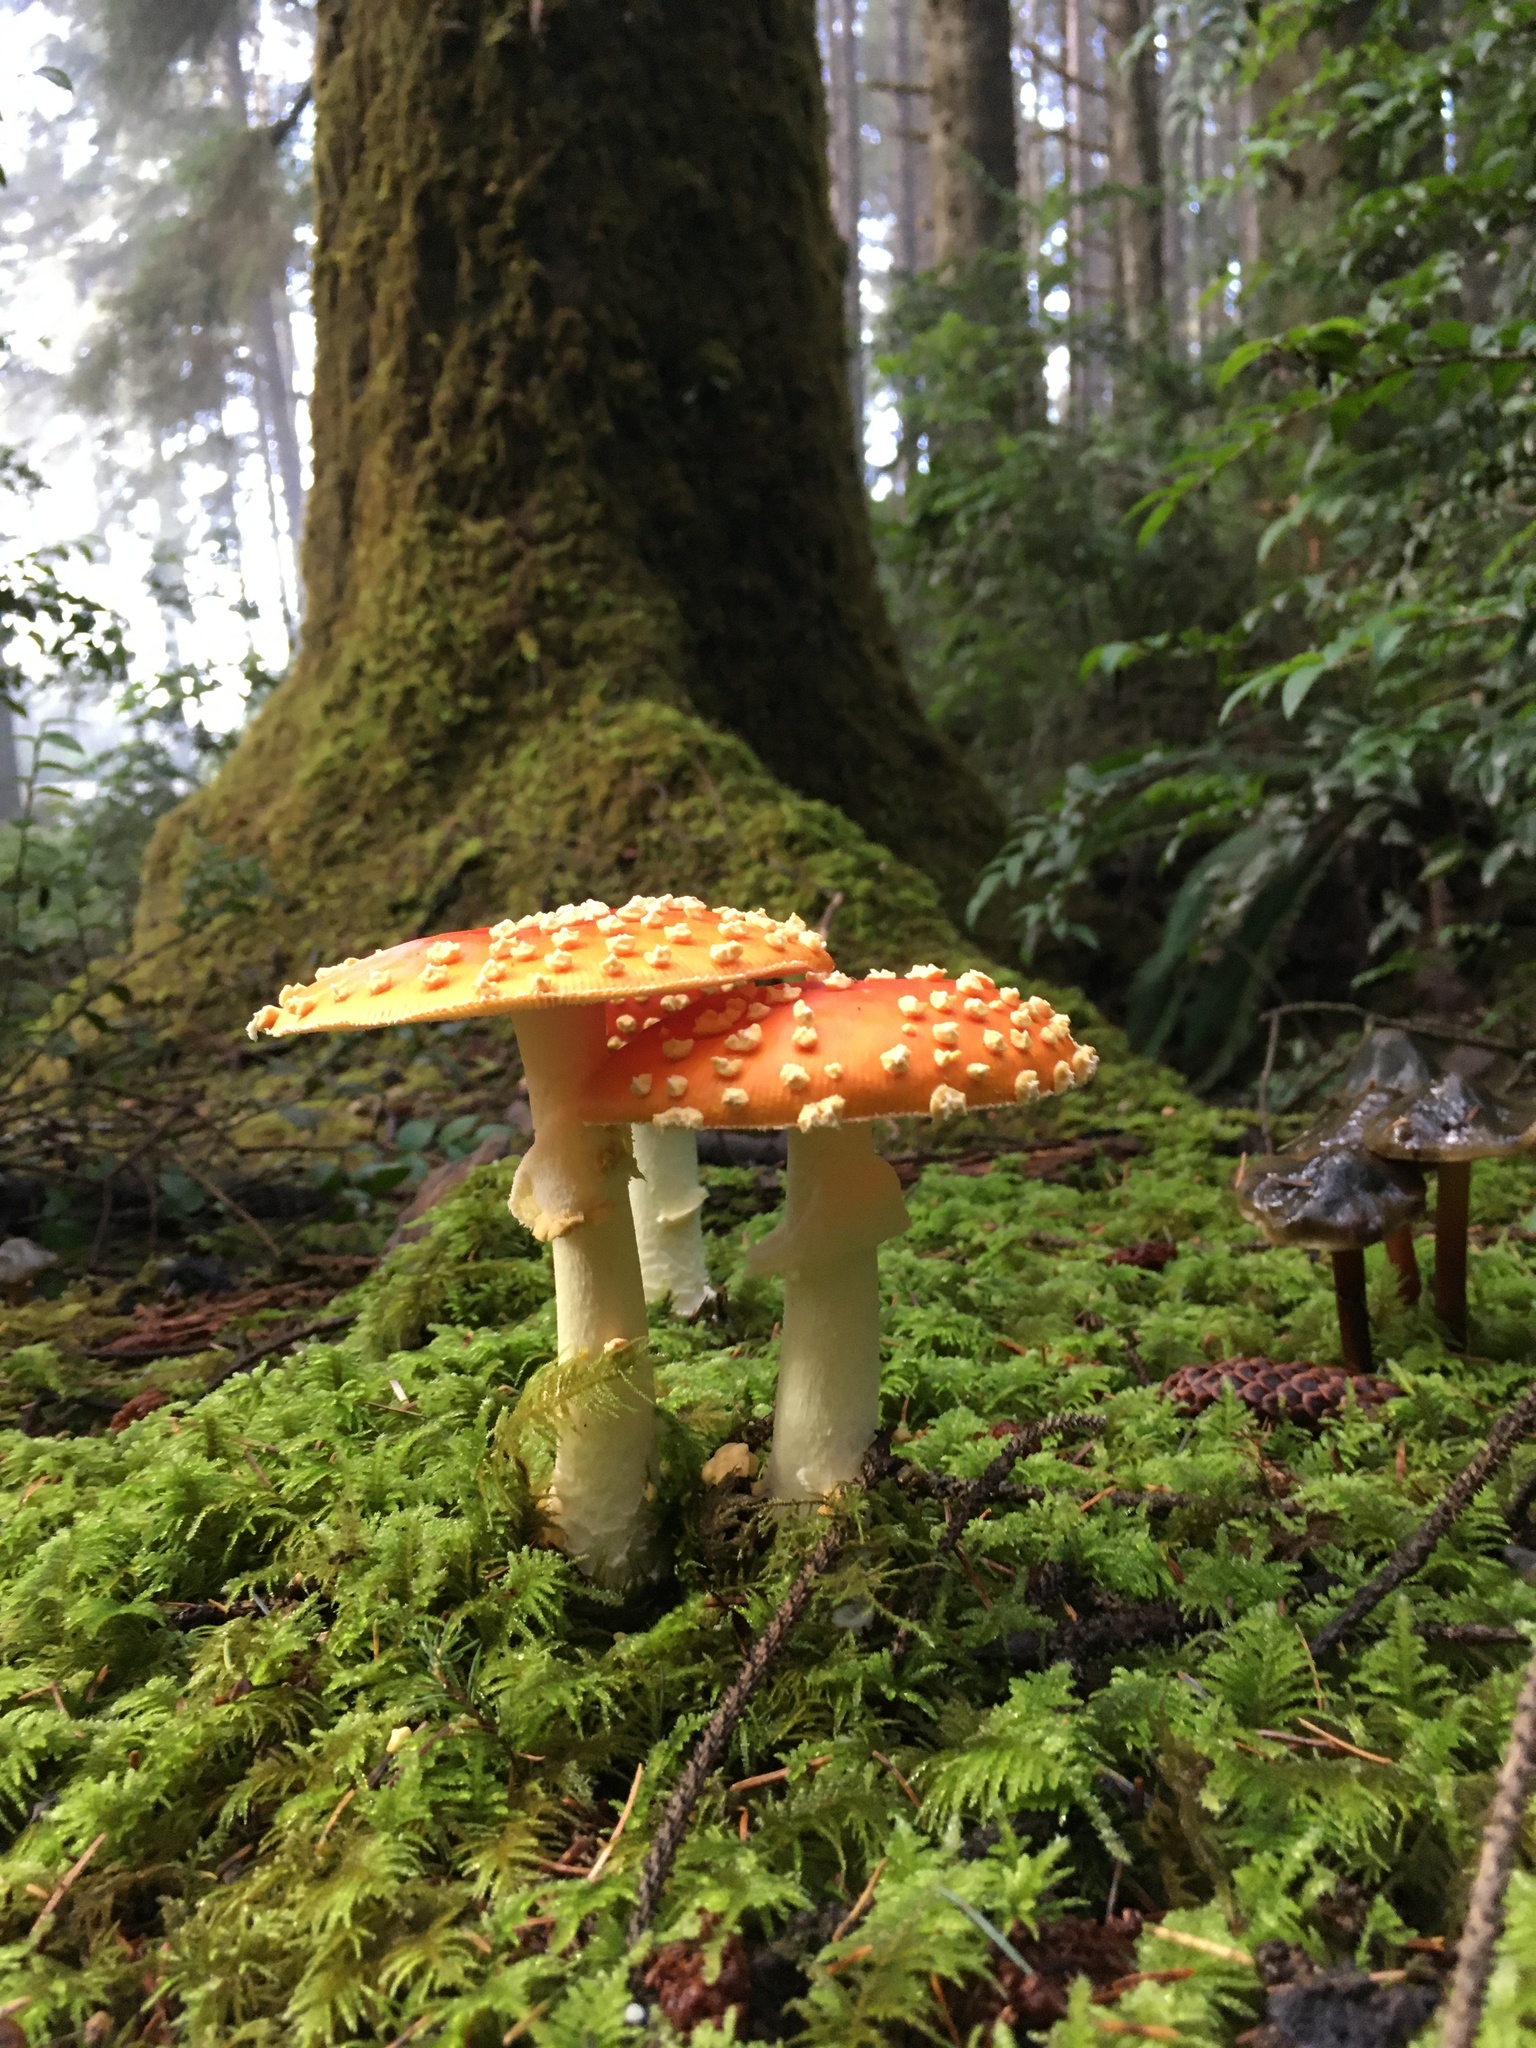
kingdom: Fungi
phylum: Basidiomycota
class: Agaricomycetes
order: Agaricales
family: Amanitaceae
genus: Amanita
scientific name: Amanita muscaria
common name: Fly agaric
